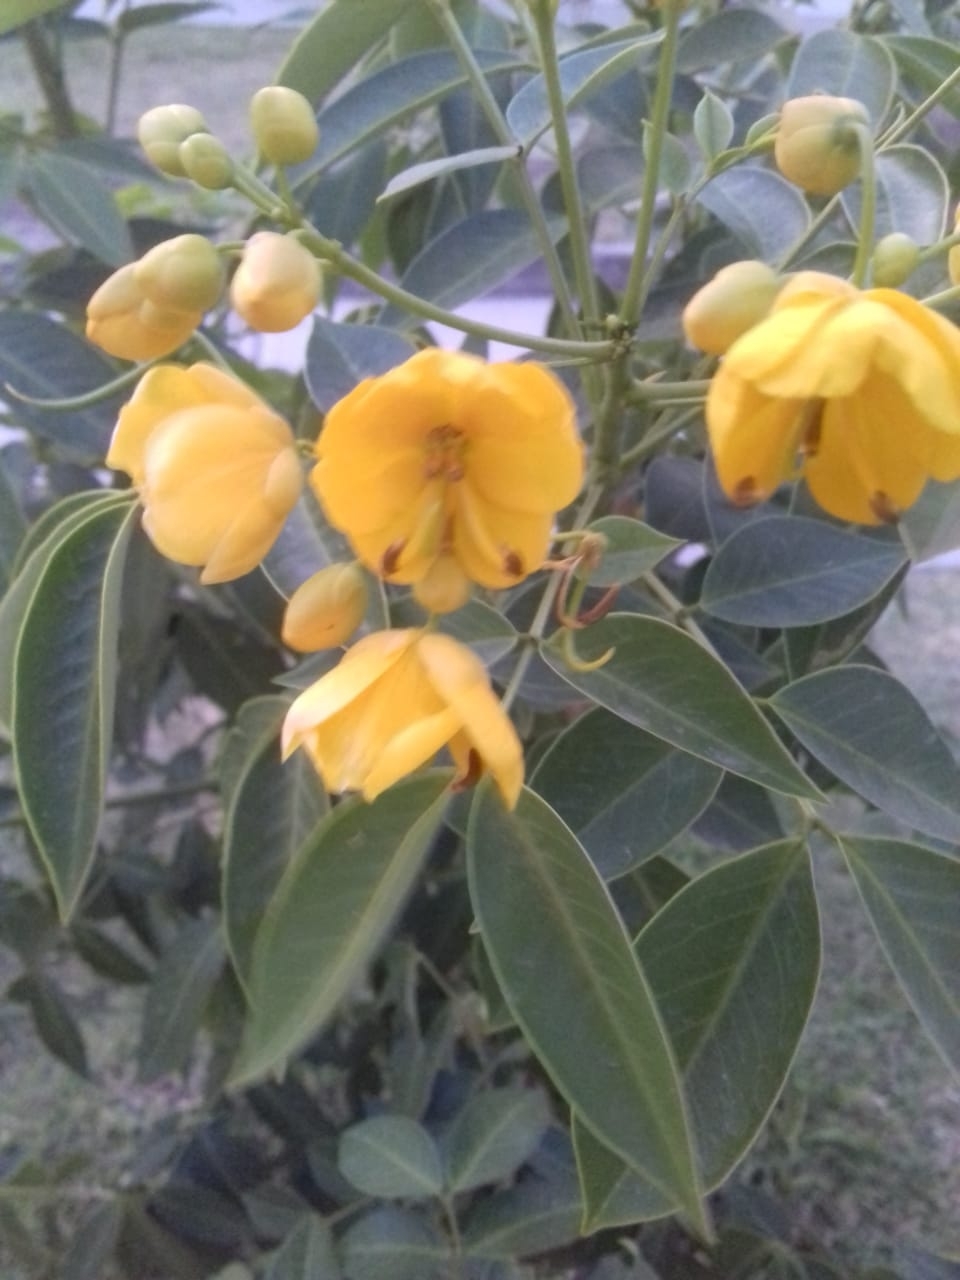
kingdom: Plantae
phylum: Tracheophyta
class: Magnoliopsida
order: Fabales
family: Fabaceae
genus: Senna
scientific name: Senna septemtrionalis
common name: Arsenic bush
